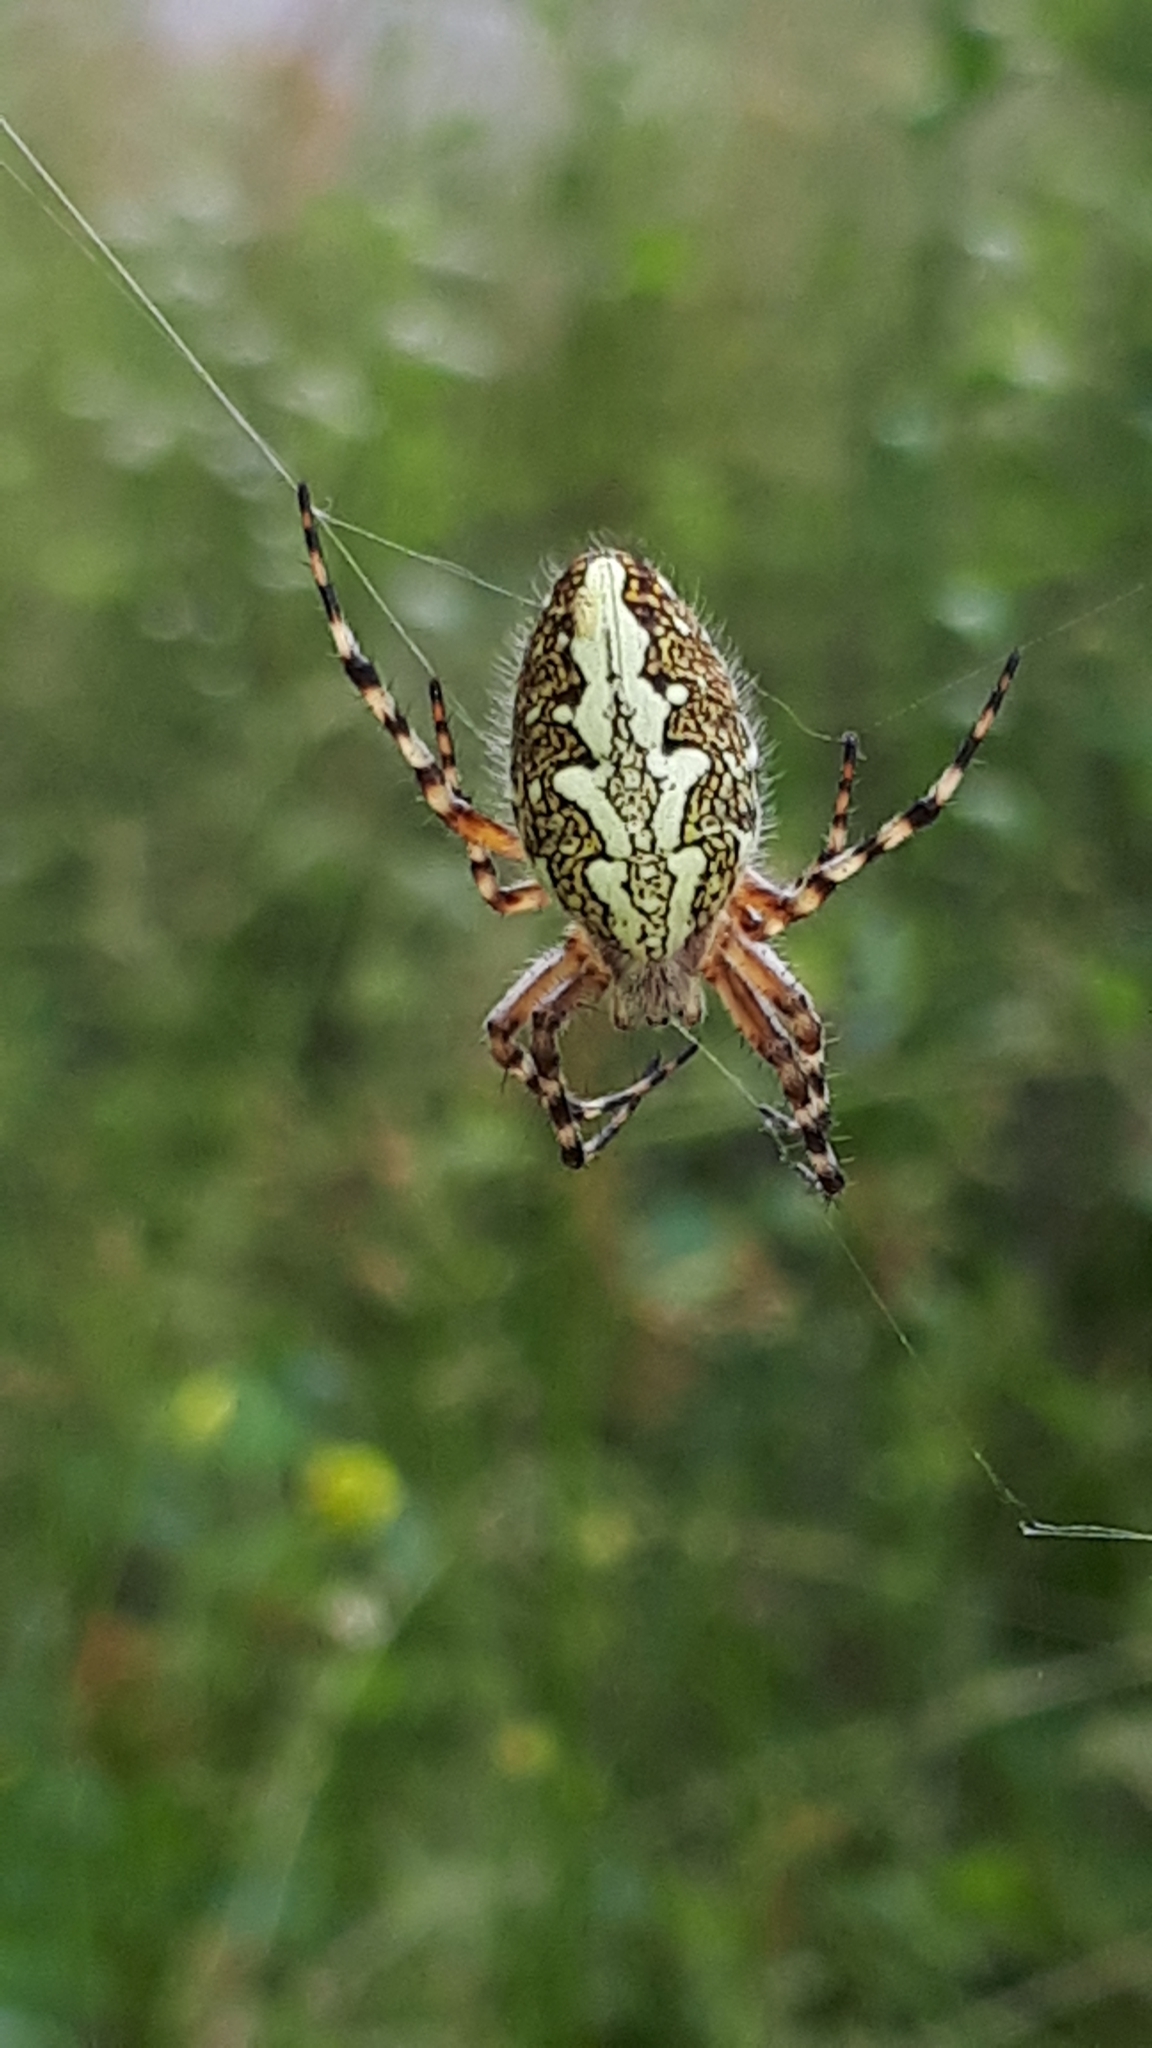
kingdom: Animalia
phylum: Arthropoda
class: Arachnida
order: Araneae
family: Araneidae
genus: Aculepeira
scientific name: Aculepeira ceropegia
